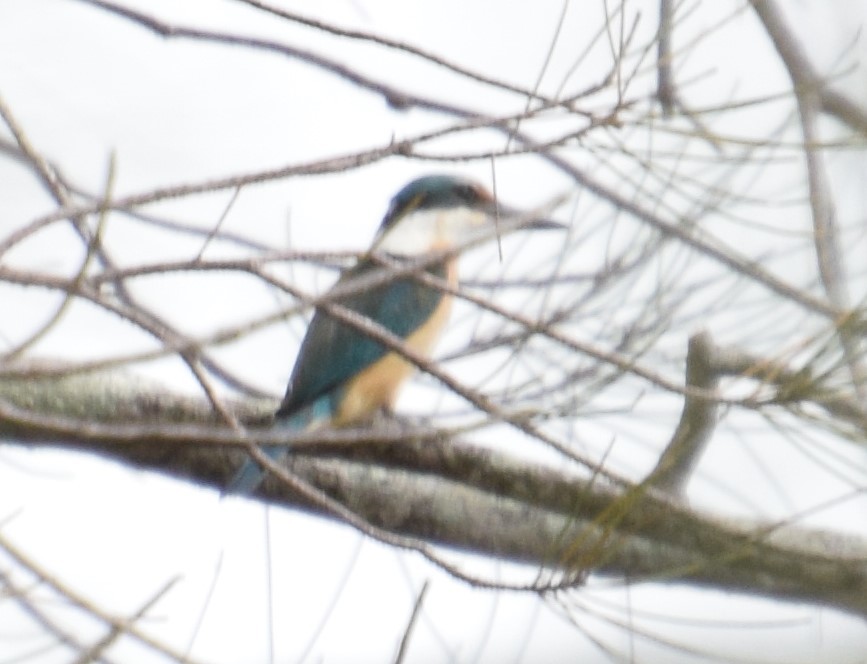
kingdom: Animalia
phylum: Chordata
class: Aves
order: Coraciiformes
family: Alcedinidae
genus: Todiramphus
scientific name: Todiramphus sanctus
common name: Sacred kingfisher
